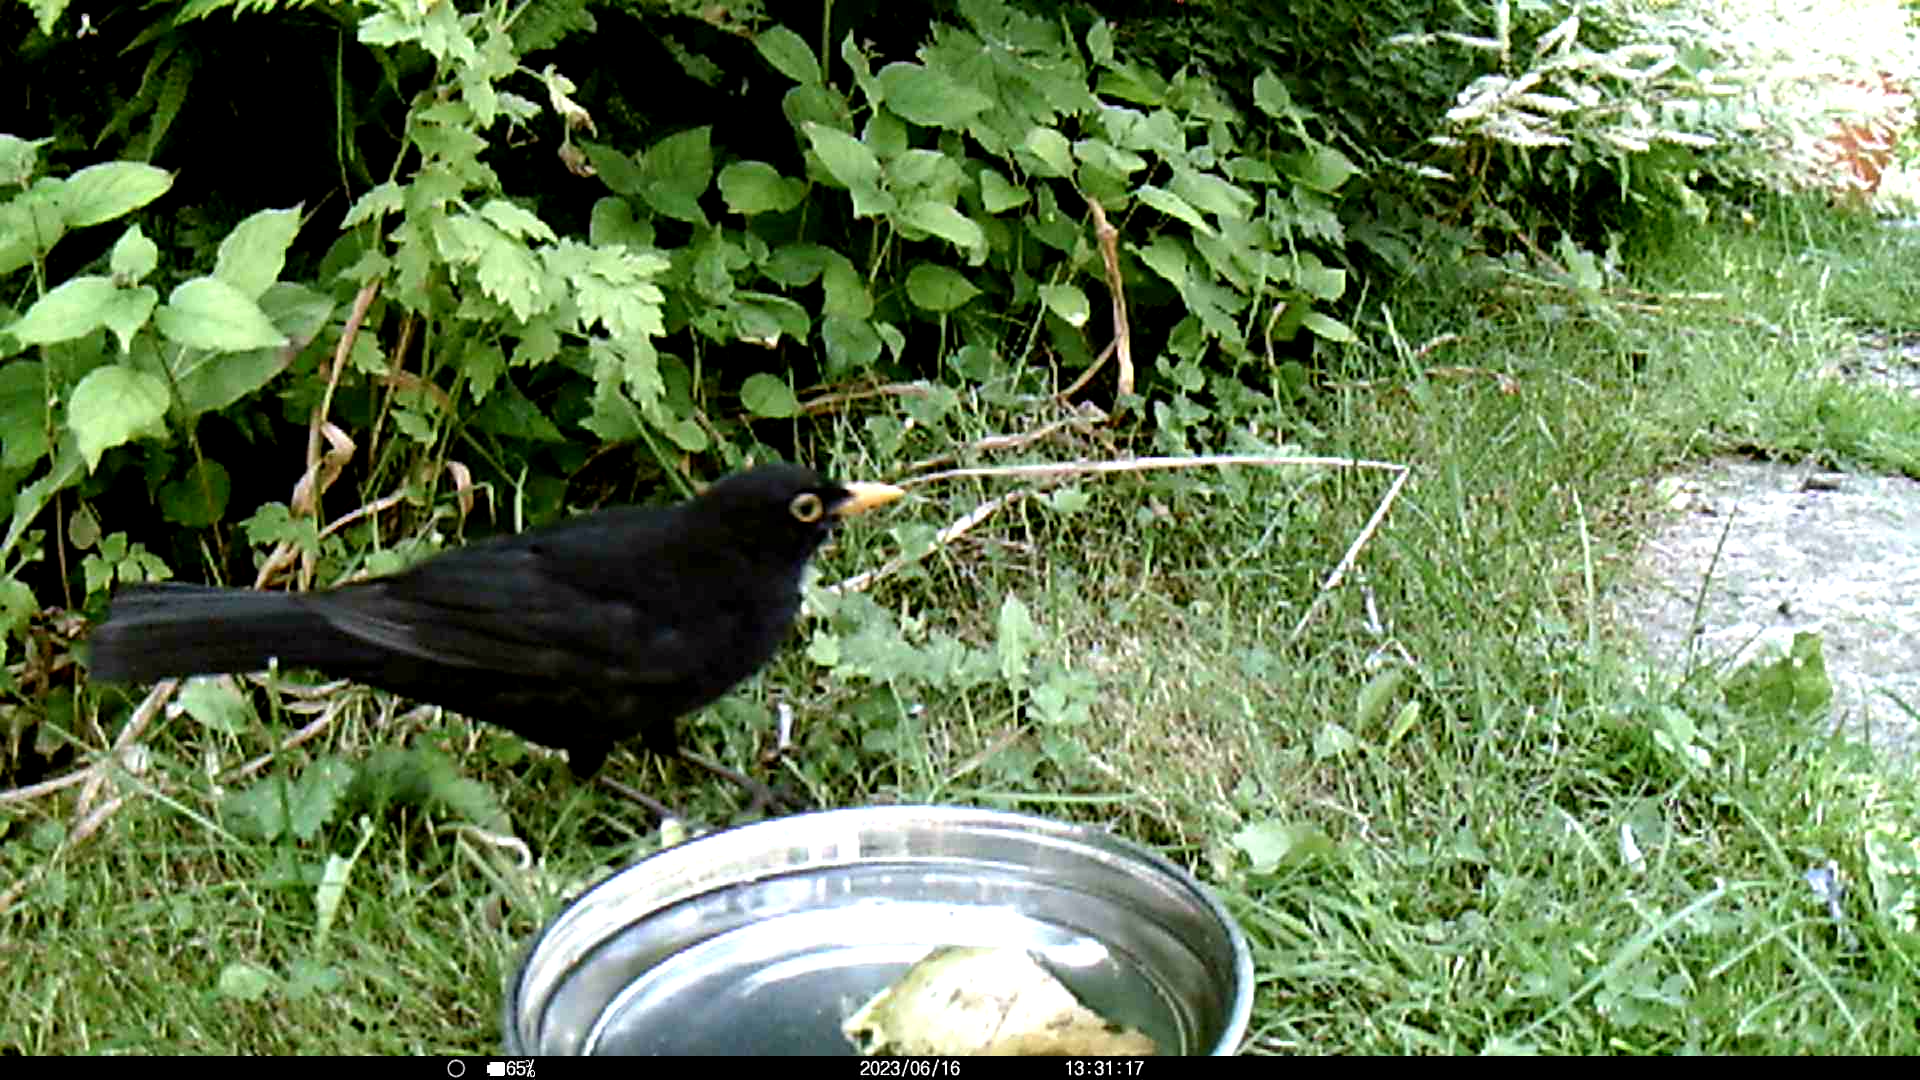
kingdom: Animalia
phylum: Chordata
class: Aves
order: Passeriformes
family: Turdidae
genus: Turdus
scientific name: Turdus merula
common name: Common blackbird
